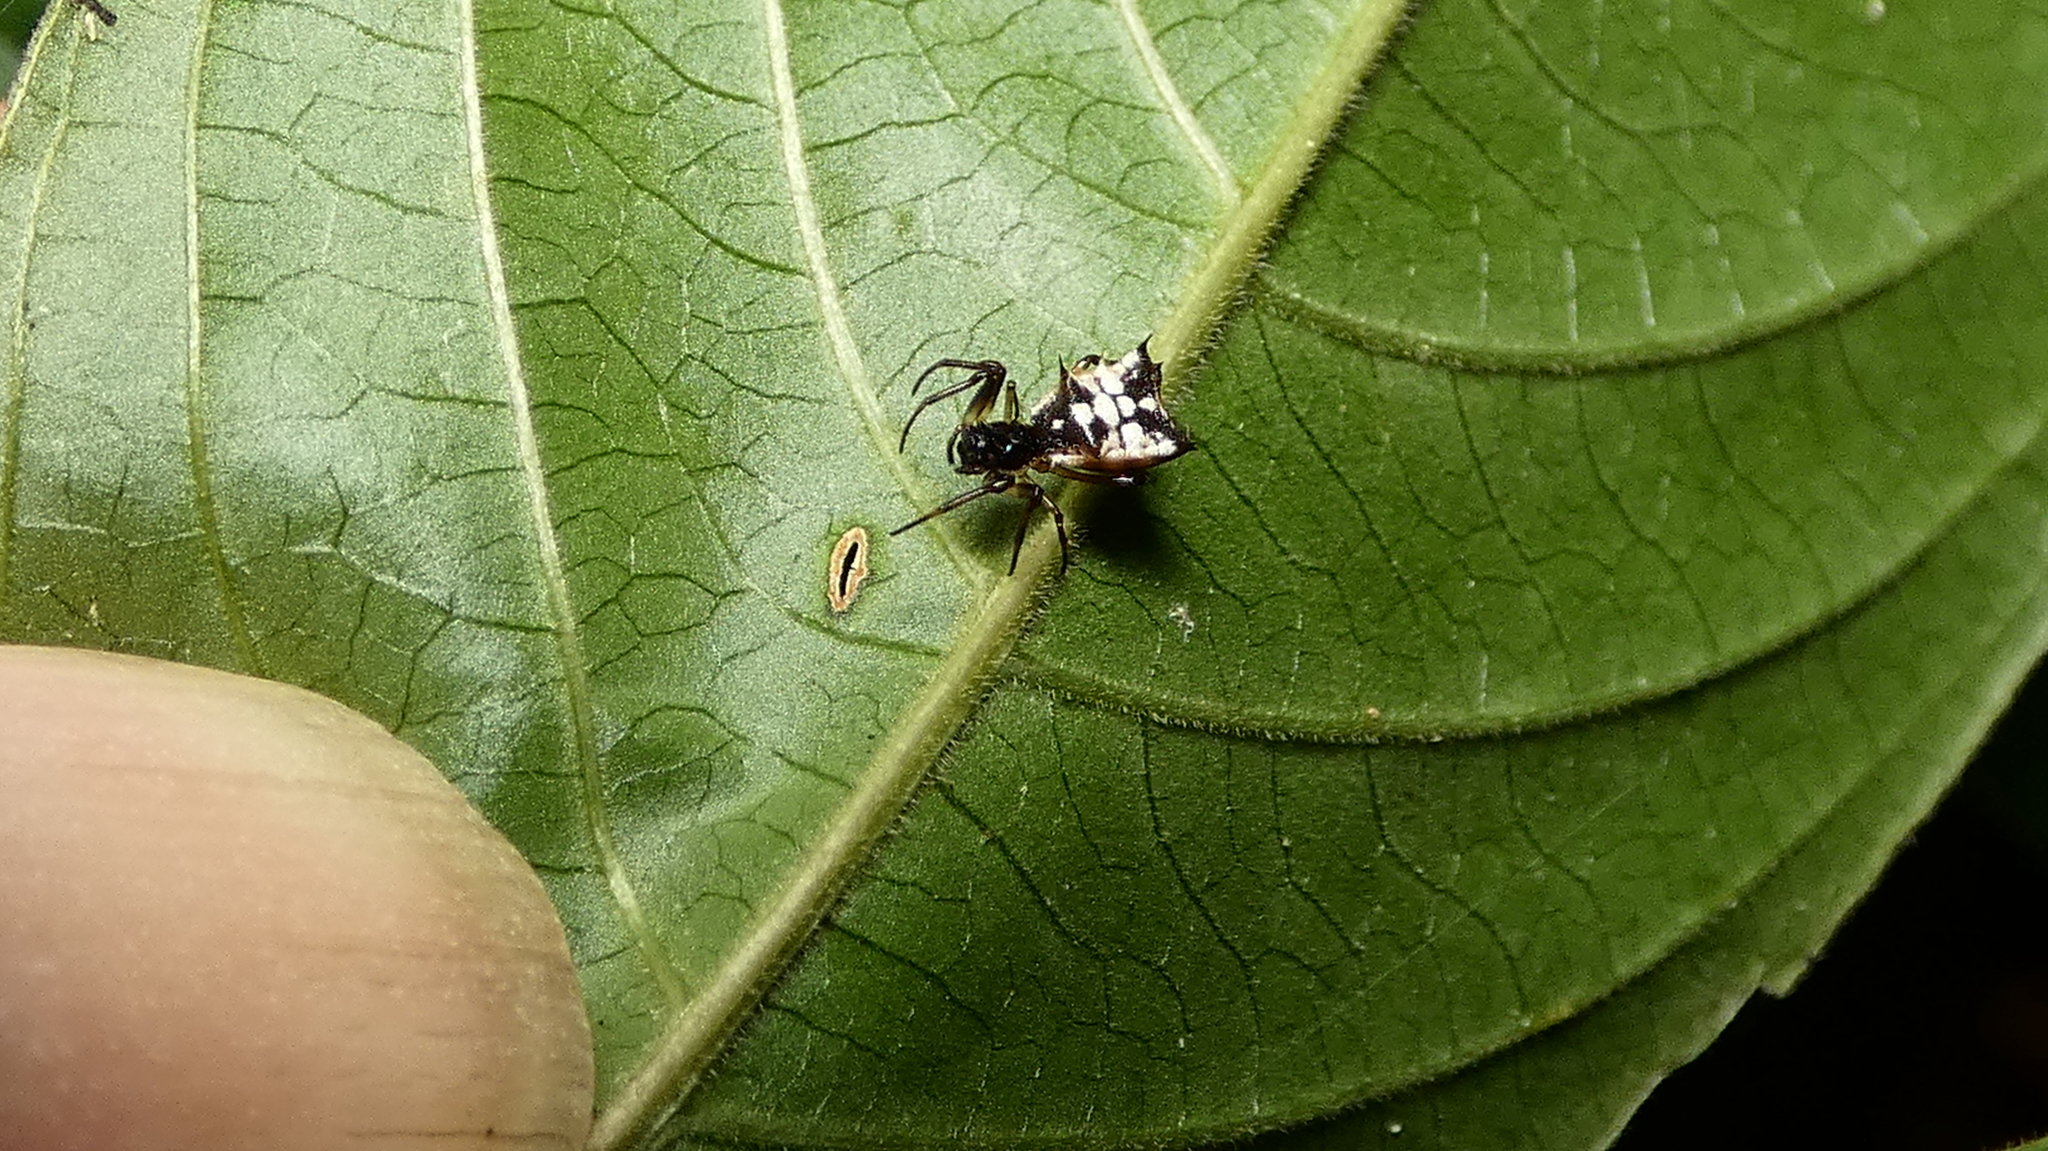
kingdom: Animalia
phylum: Arthropoda
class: Arachnida
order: Araneae
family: Araneidae
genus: Micrathena
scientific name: Micrathena picta
